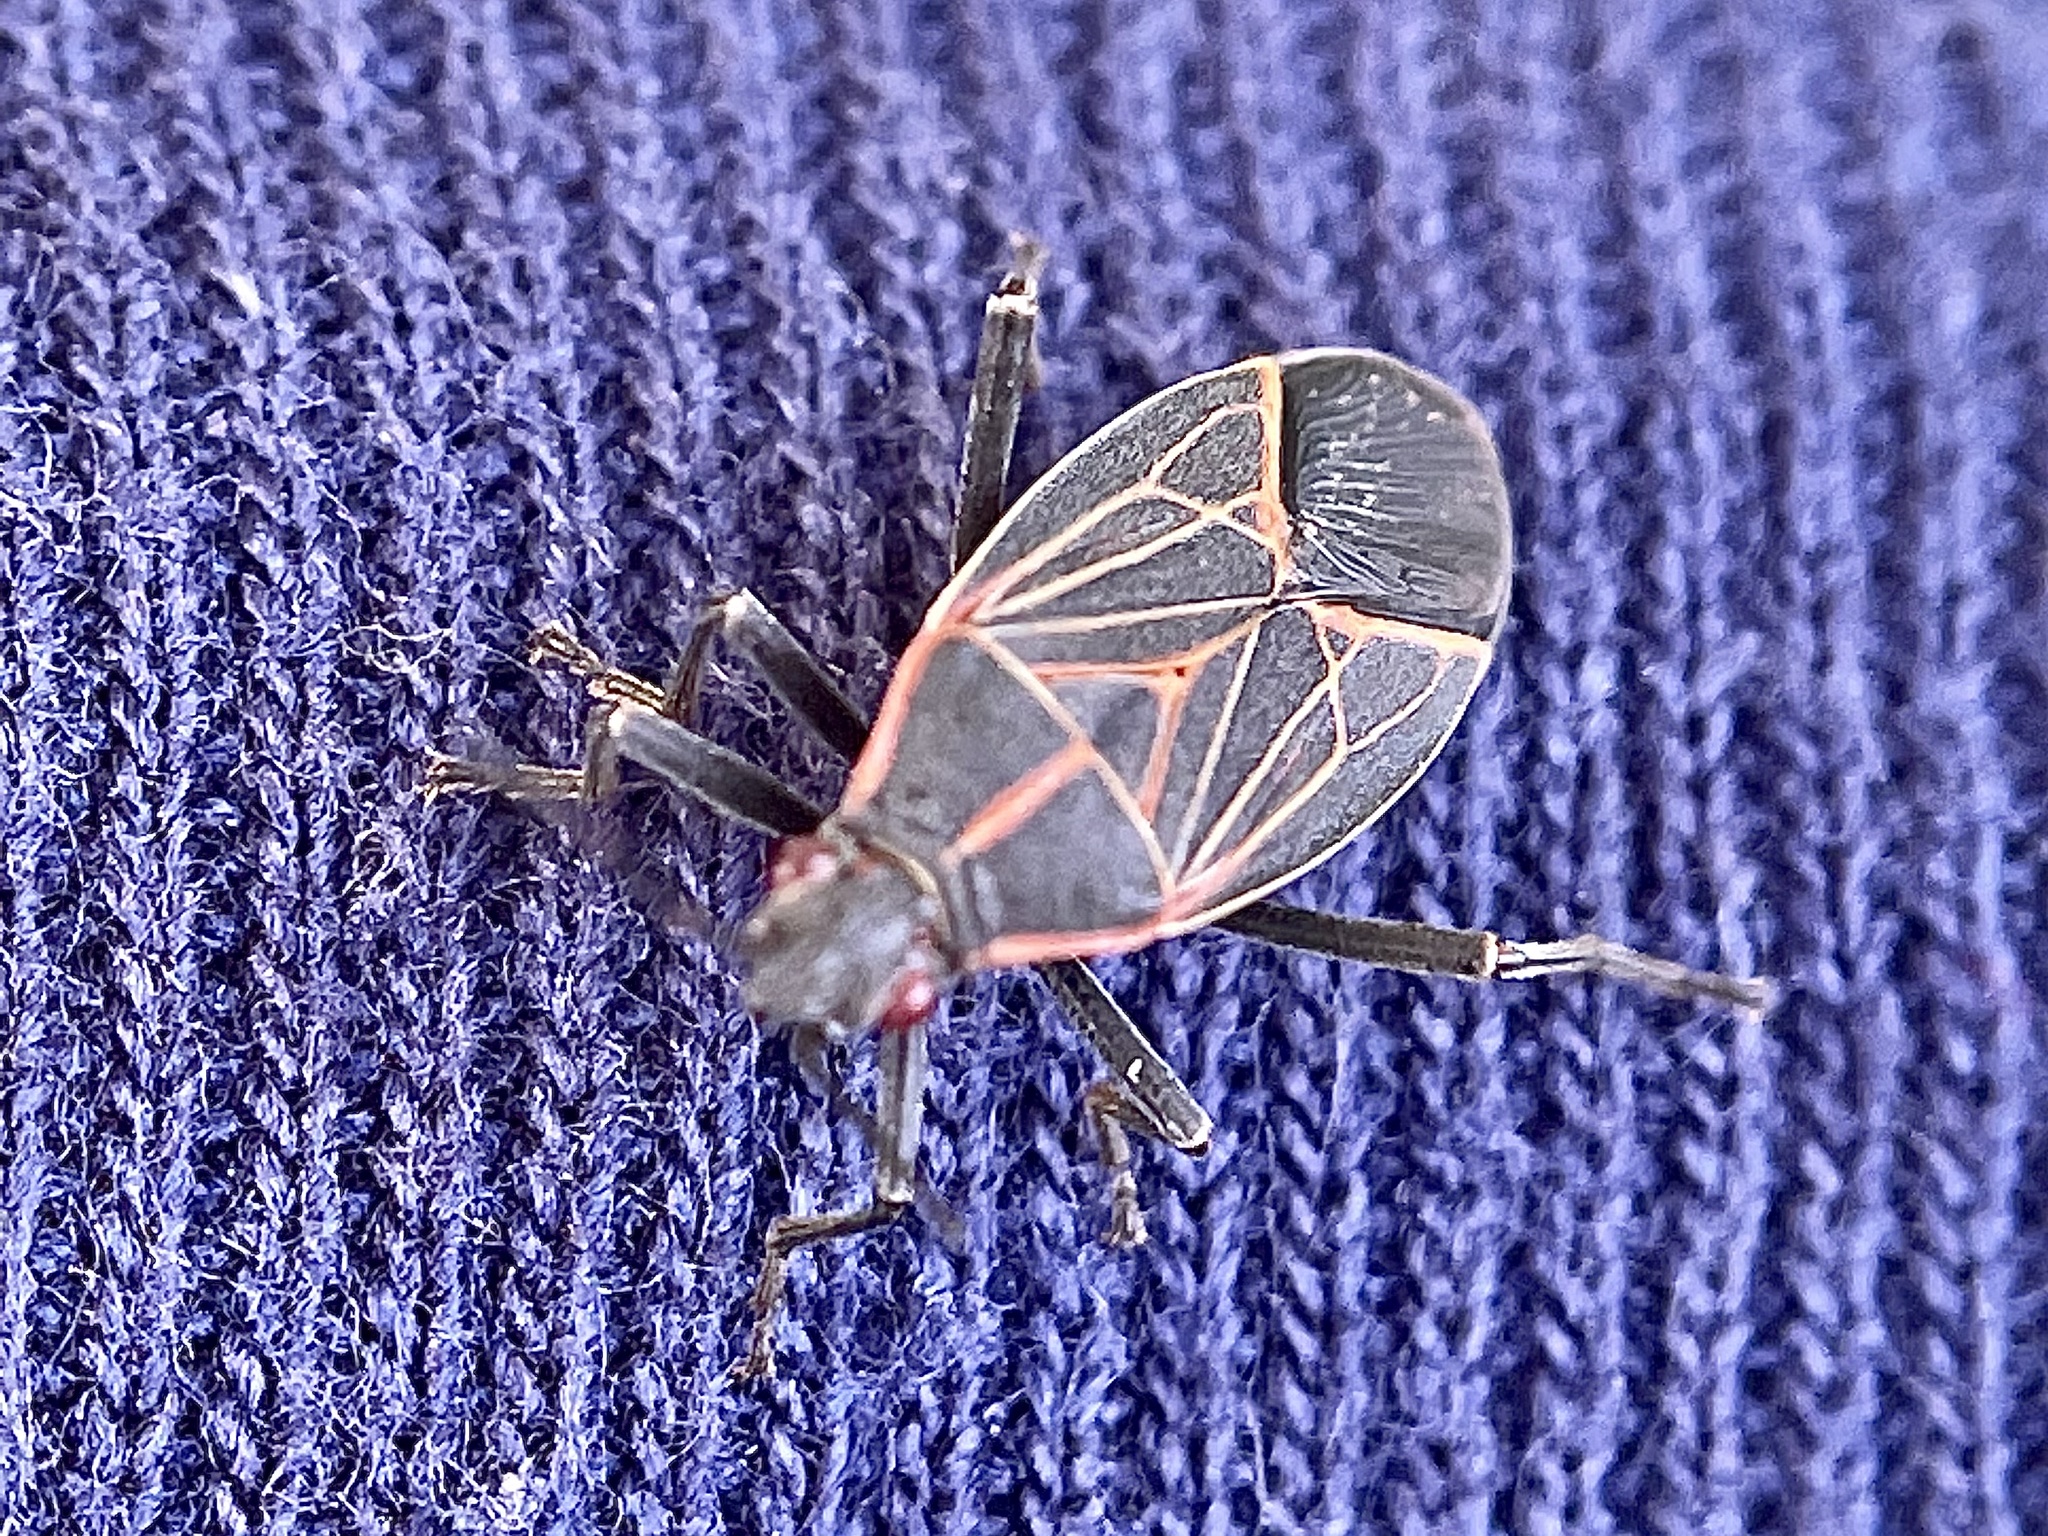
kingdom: Animalia
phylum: Arthropoda
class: Insecta
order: Hemiptera
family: Rhopalidae
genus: Boisea
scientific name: Boisea rubrolineata
